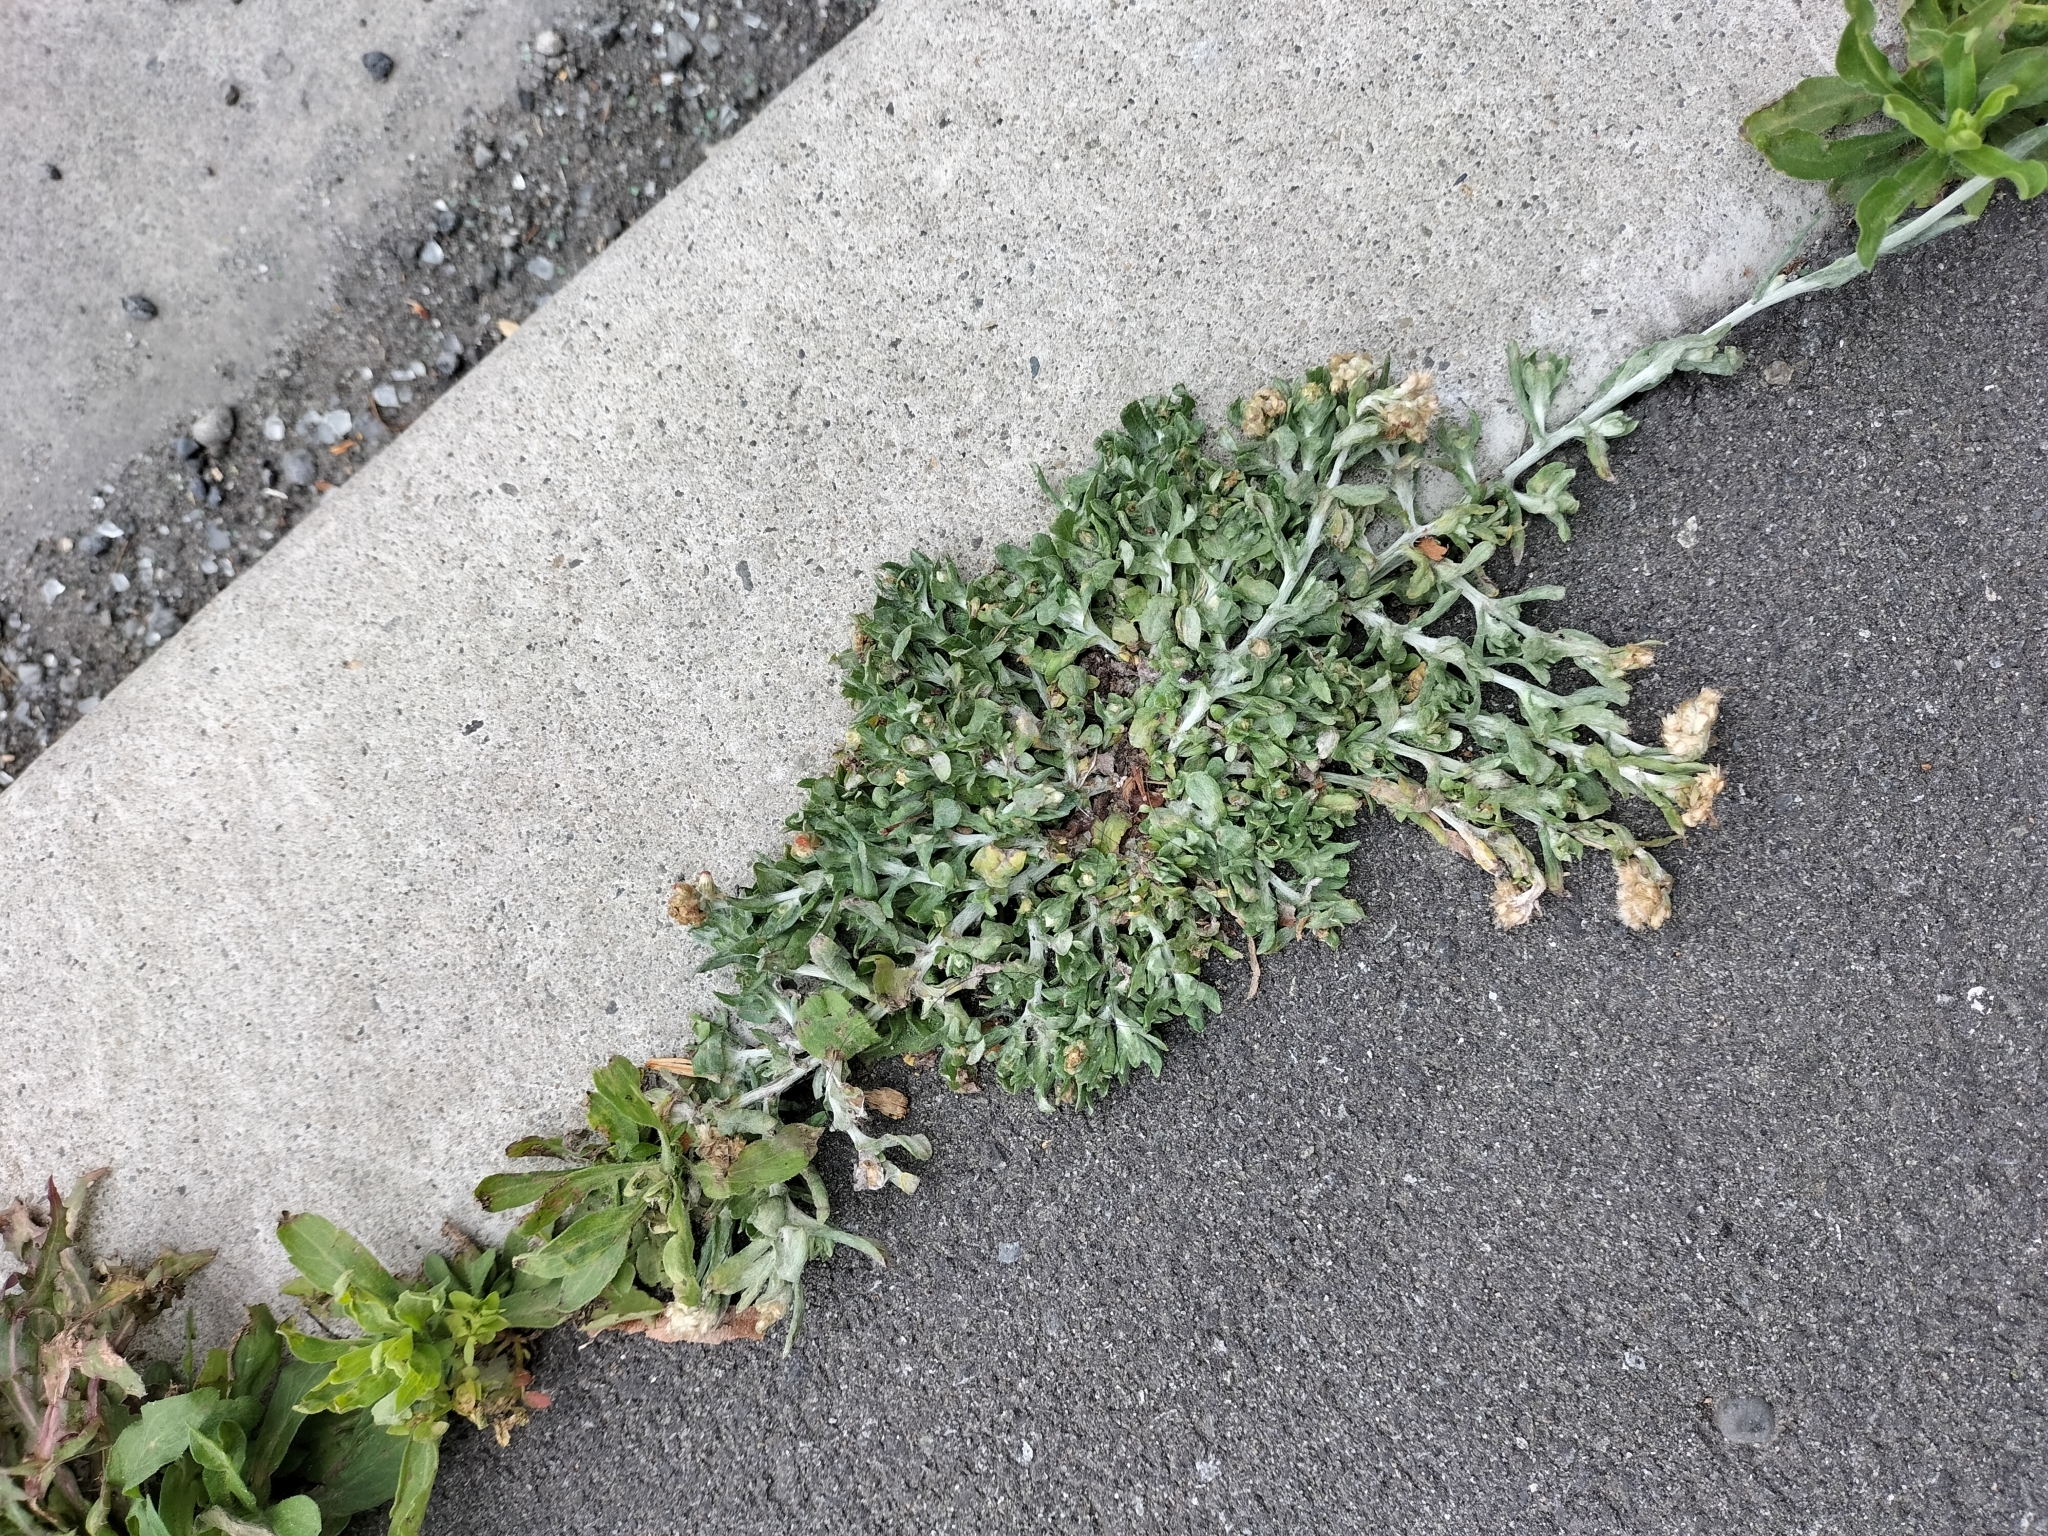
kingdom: Plantae
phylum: Tracheophyta
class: Magnoliopsida
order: Asterales
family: Asteraceae
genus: Helichrysum
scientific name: Helichrysum luteoalbum
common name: Daisy
